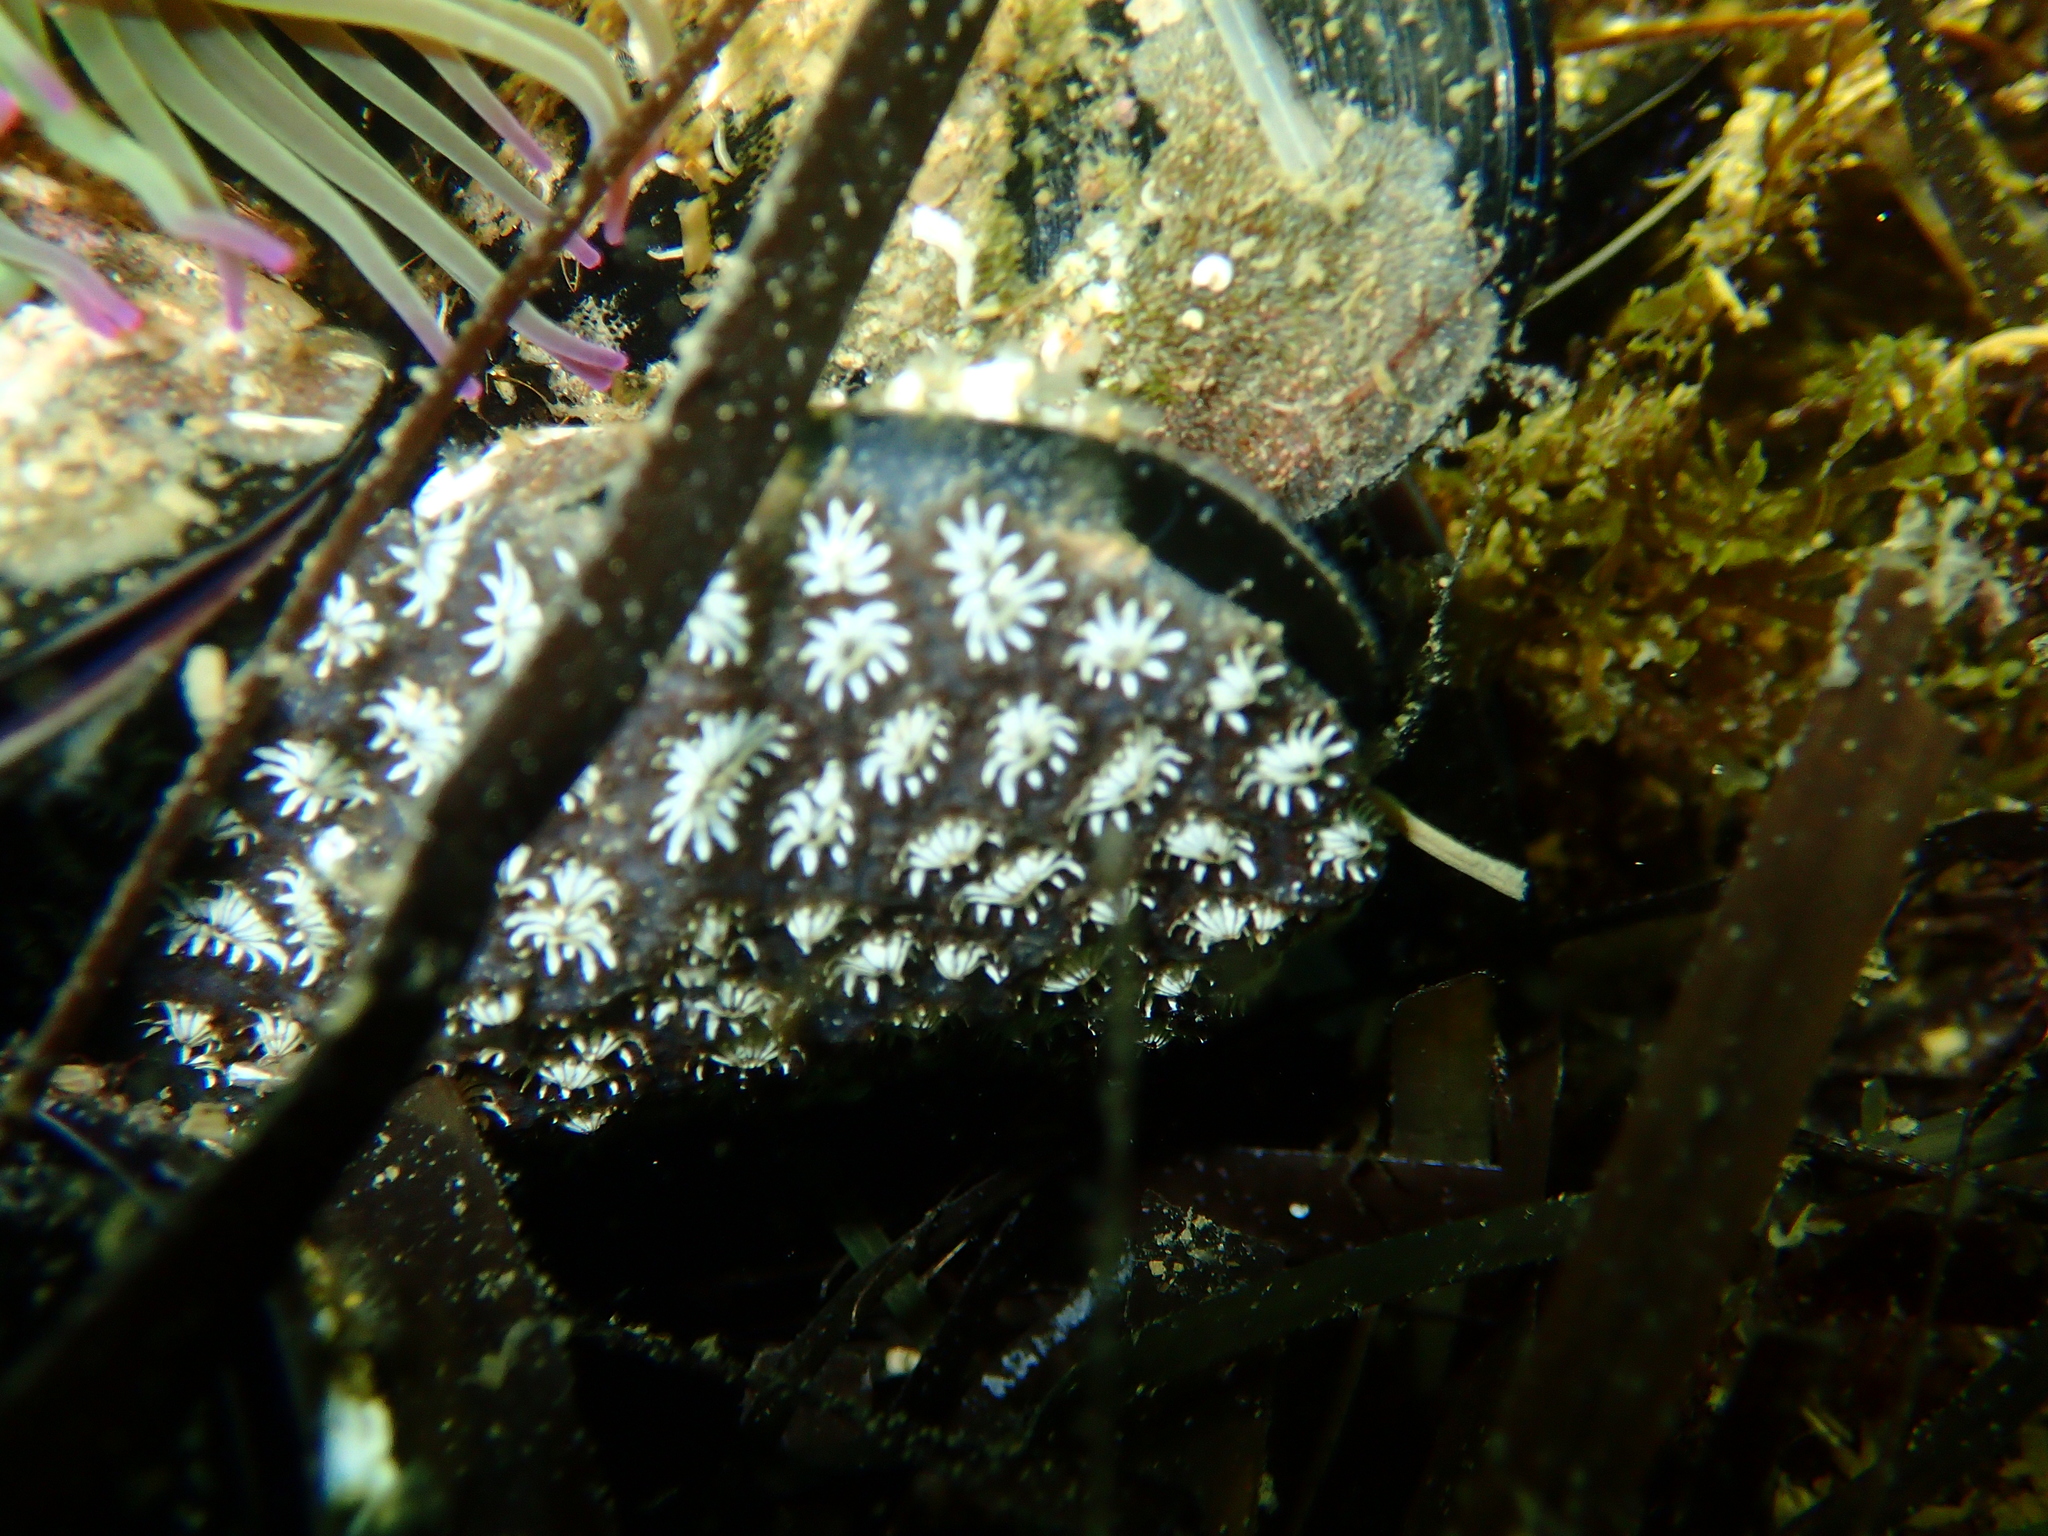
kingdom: Animalia
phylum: Chordata
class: Ascidiacea
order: Stolidobranchia
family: Styelidae
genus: Botryllus
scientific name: Botryllus schlosseri
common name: Golden star tunicate
